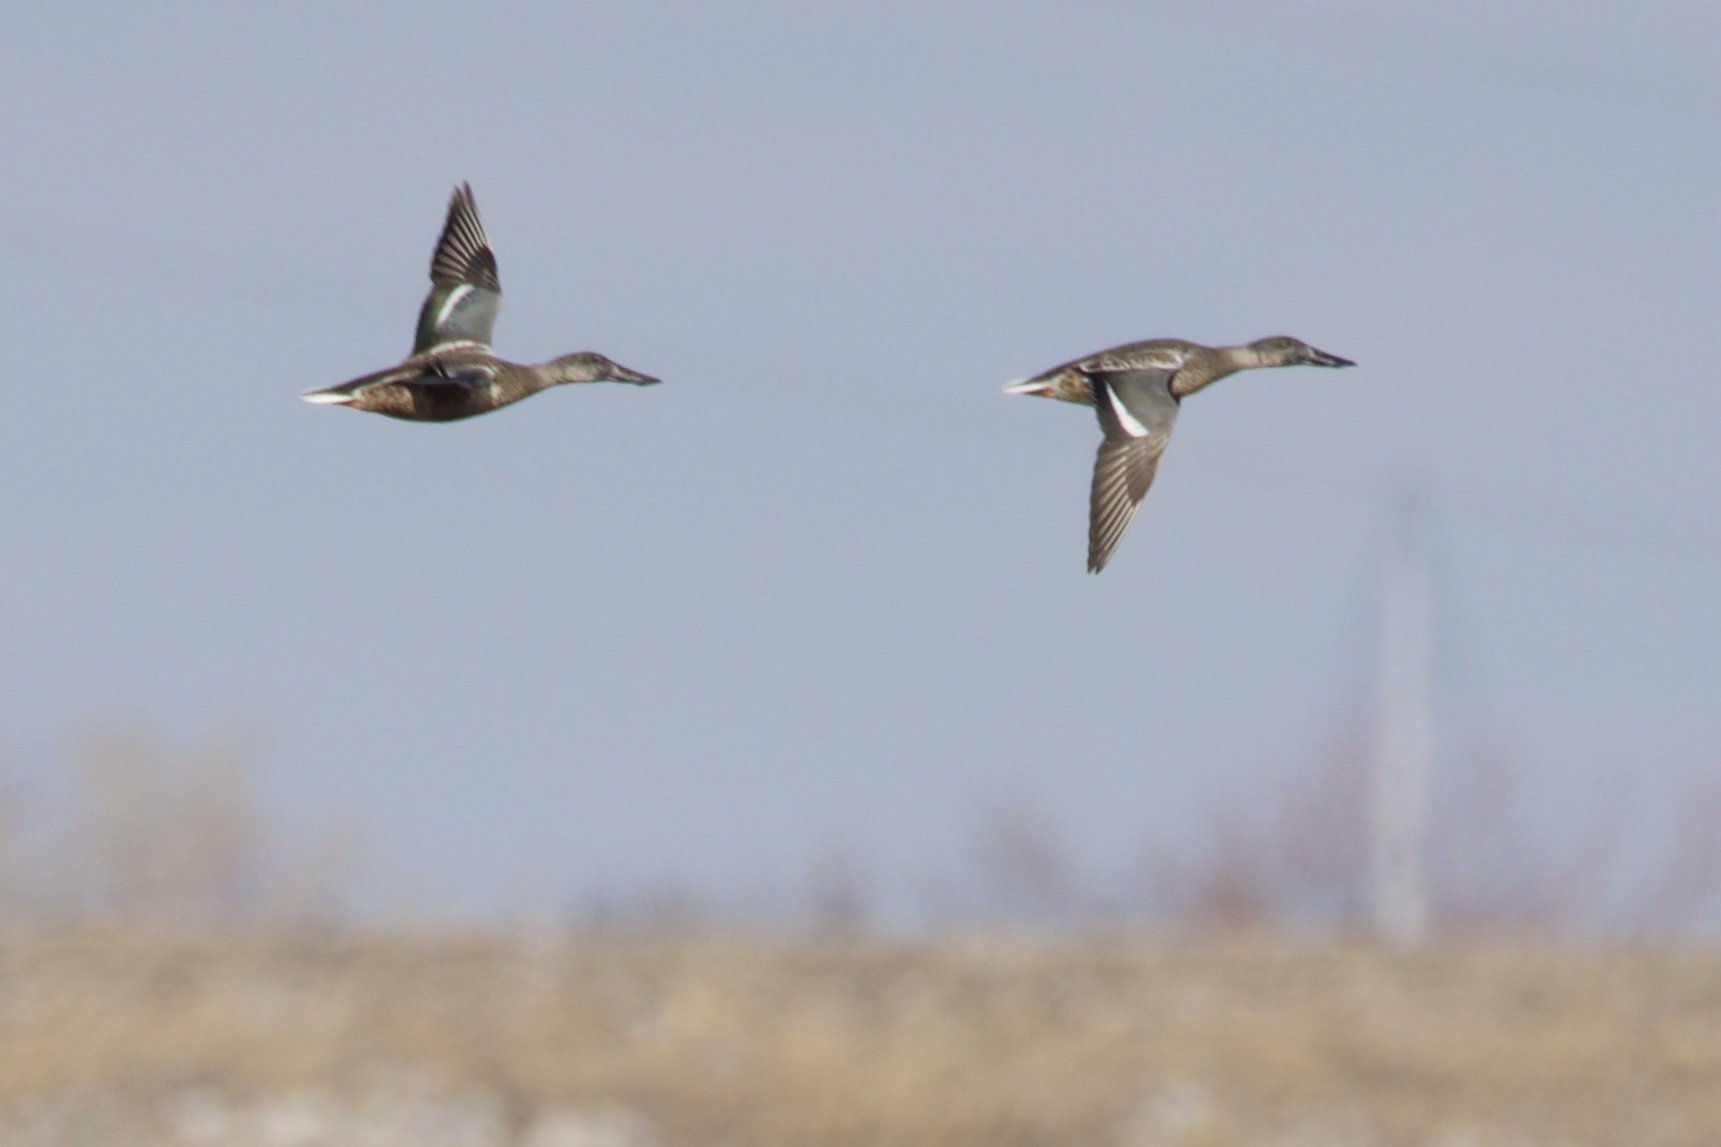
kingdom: Animalia
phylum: Chordata
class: Aves
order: Anseriformes
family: Anatidae
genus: Spatula
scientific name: Spatula clypeata
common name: Northern shoveler
